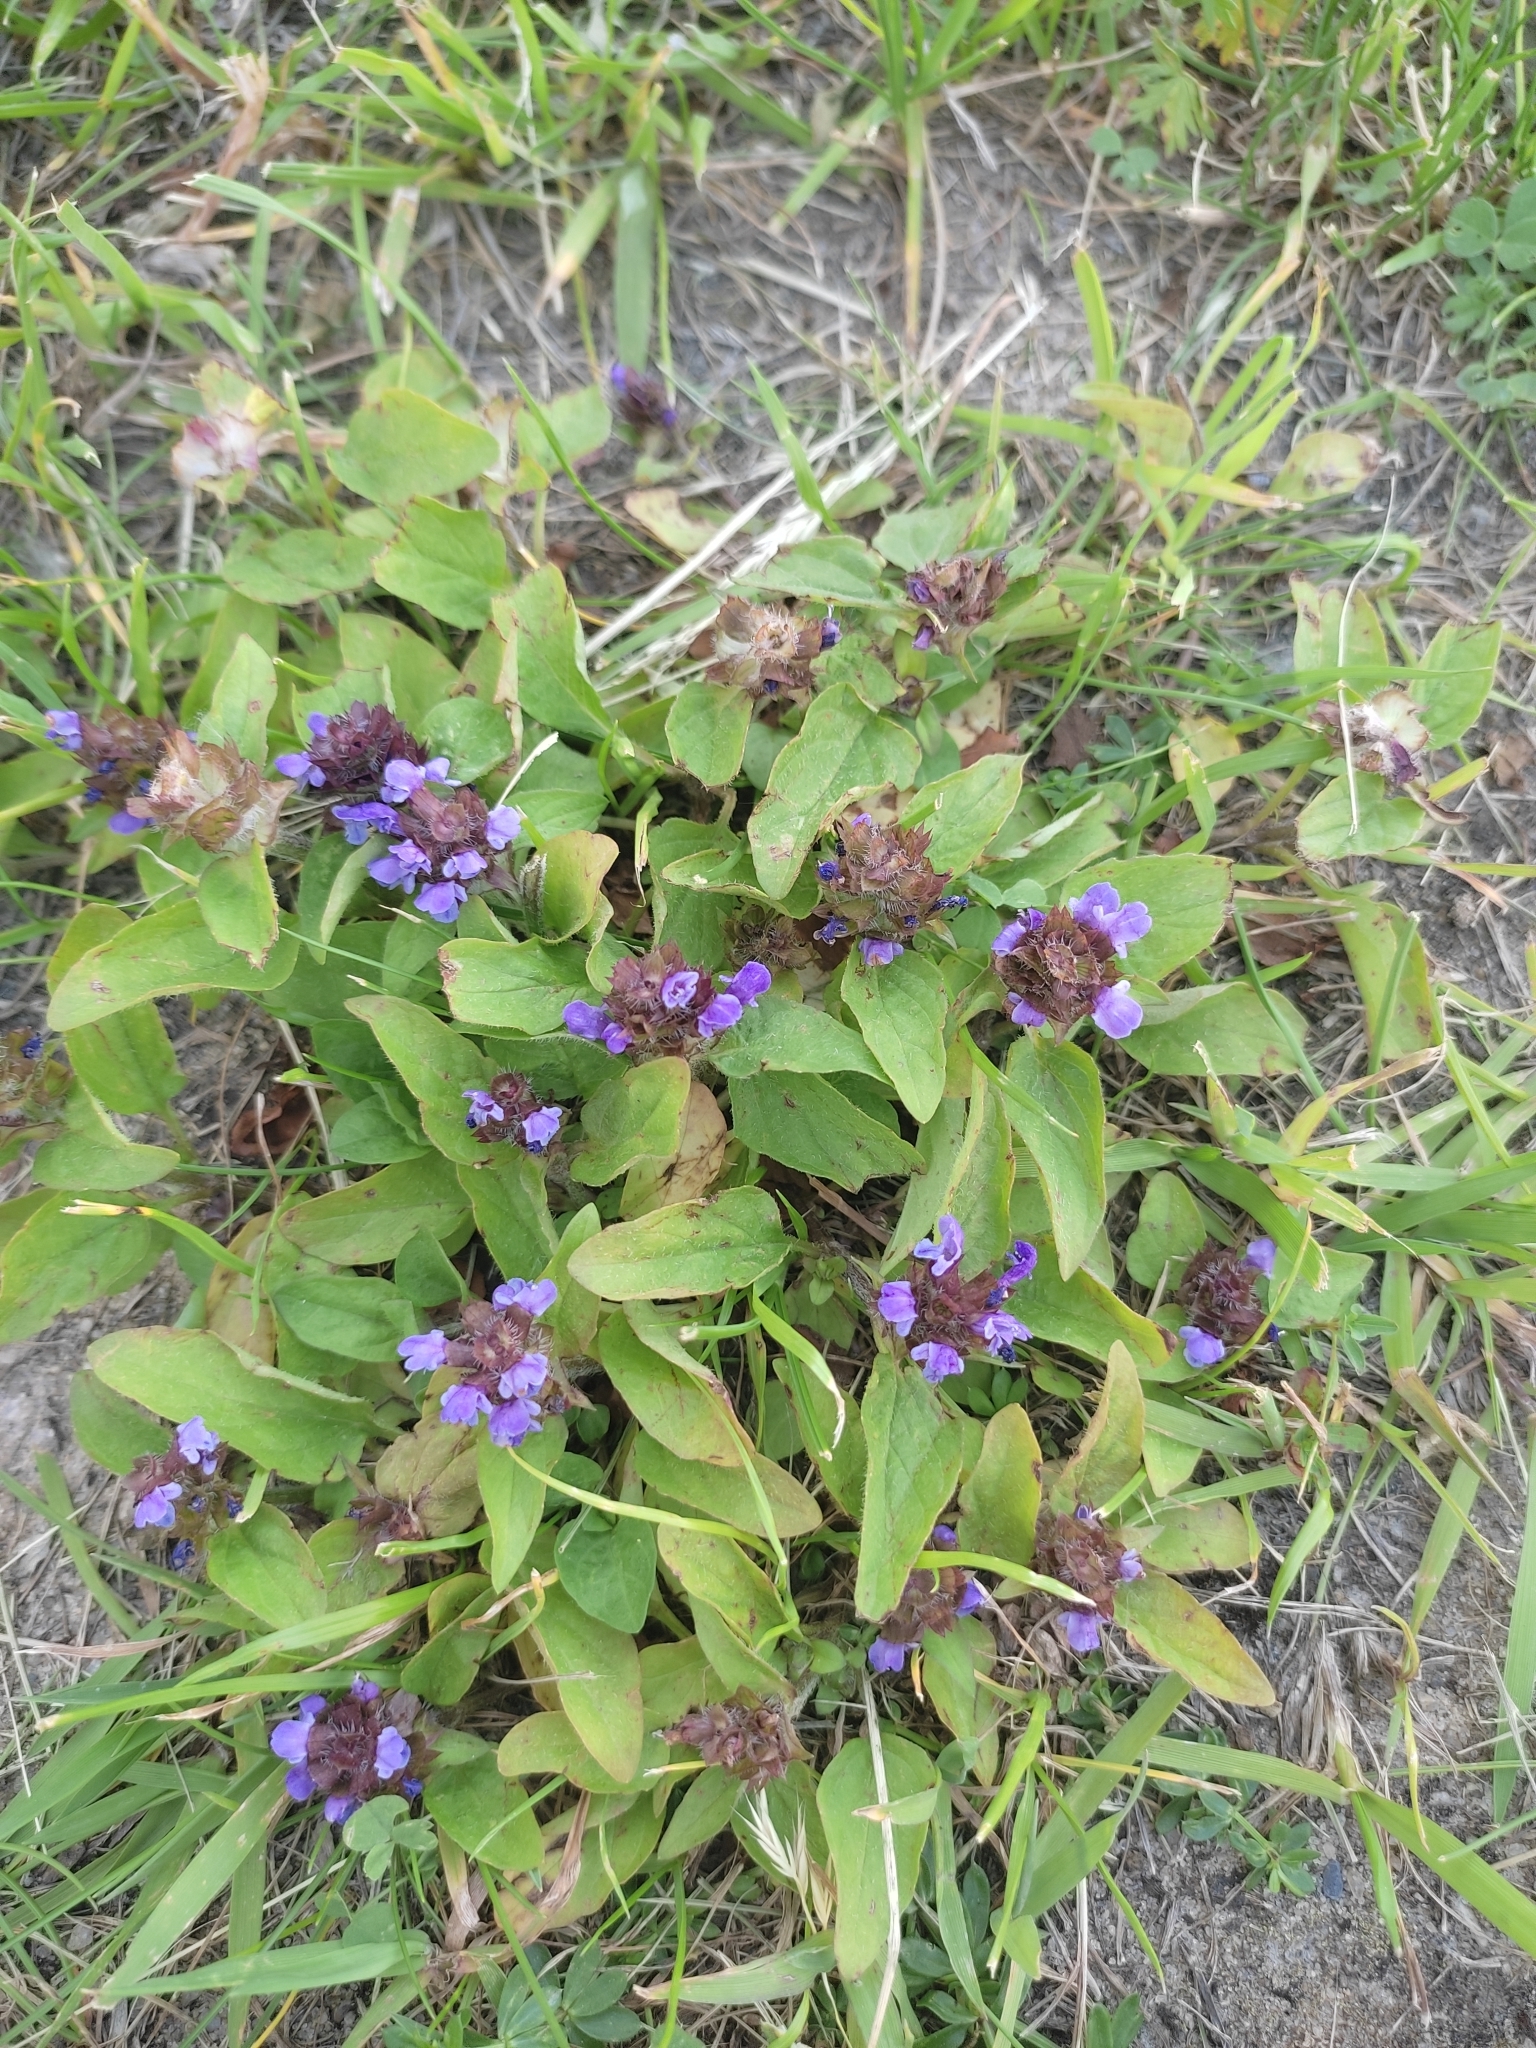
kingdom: Plantae
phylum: Tracheophyta
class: Magnoliopsida
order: Lamiales
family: Lamiaceae
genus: Prunella
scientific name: Prunella vulgaris
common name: Heal-all
